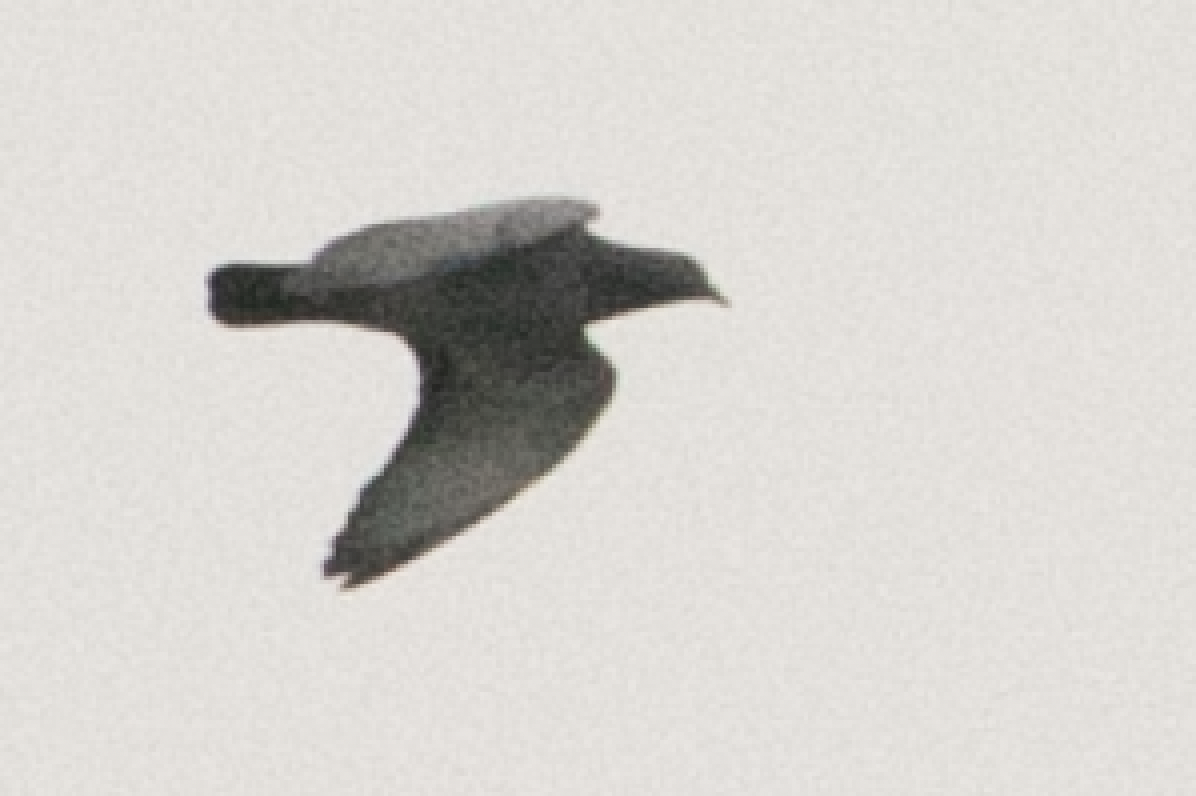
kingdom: Animalia
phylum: Chordata
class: Aves
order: Columbiformes
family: Columbidae
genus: Columba
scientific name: Columba livia
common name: Rock pigeon
